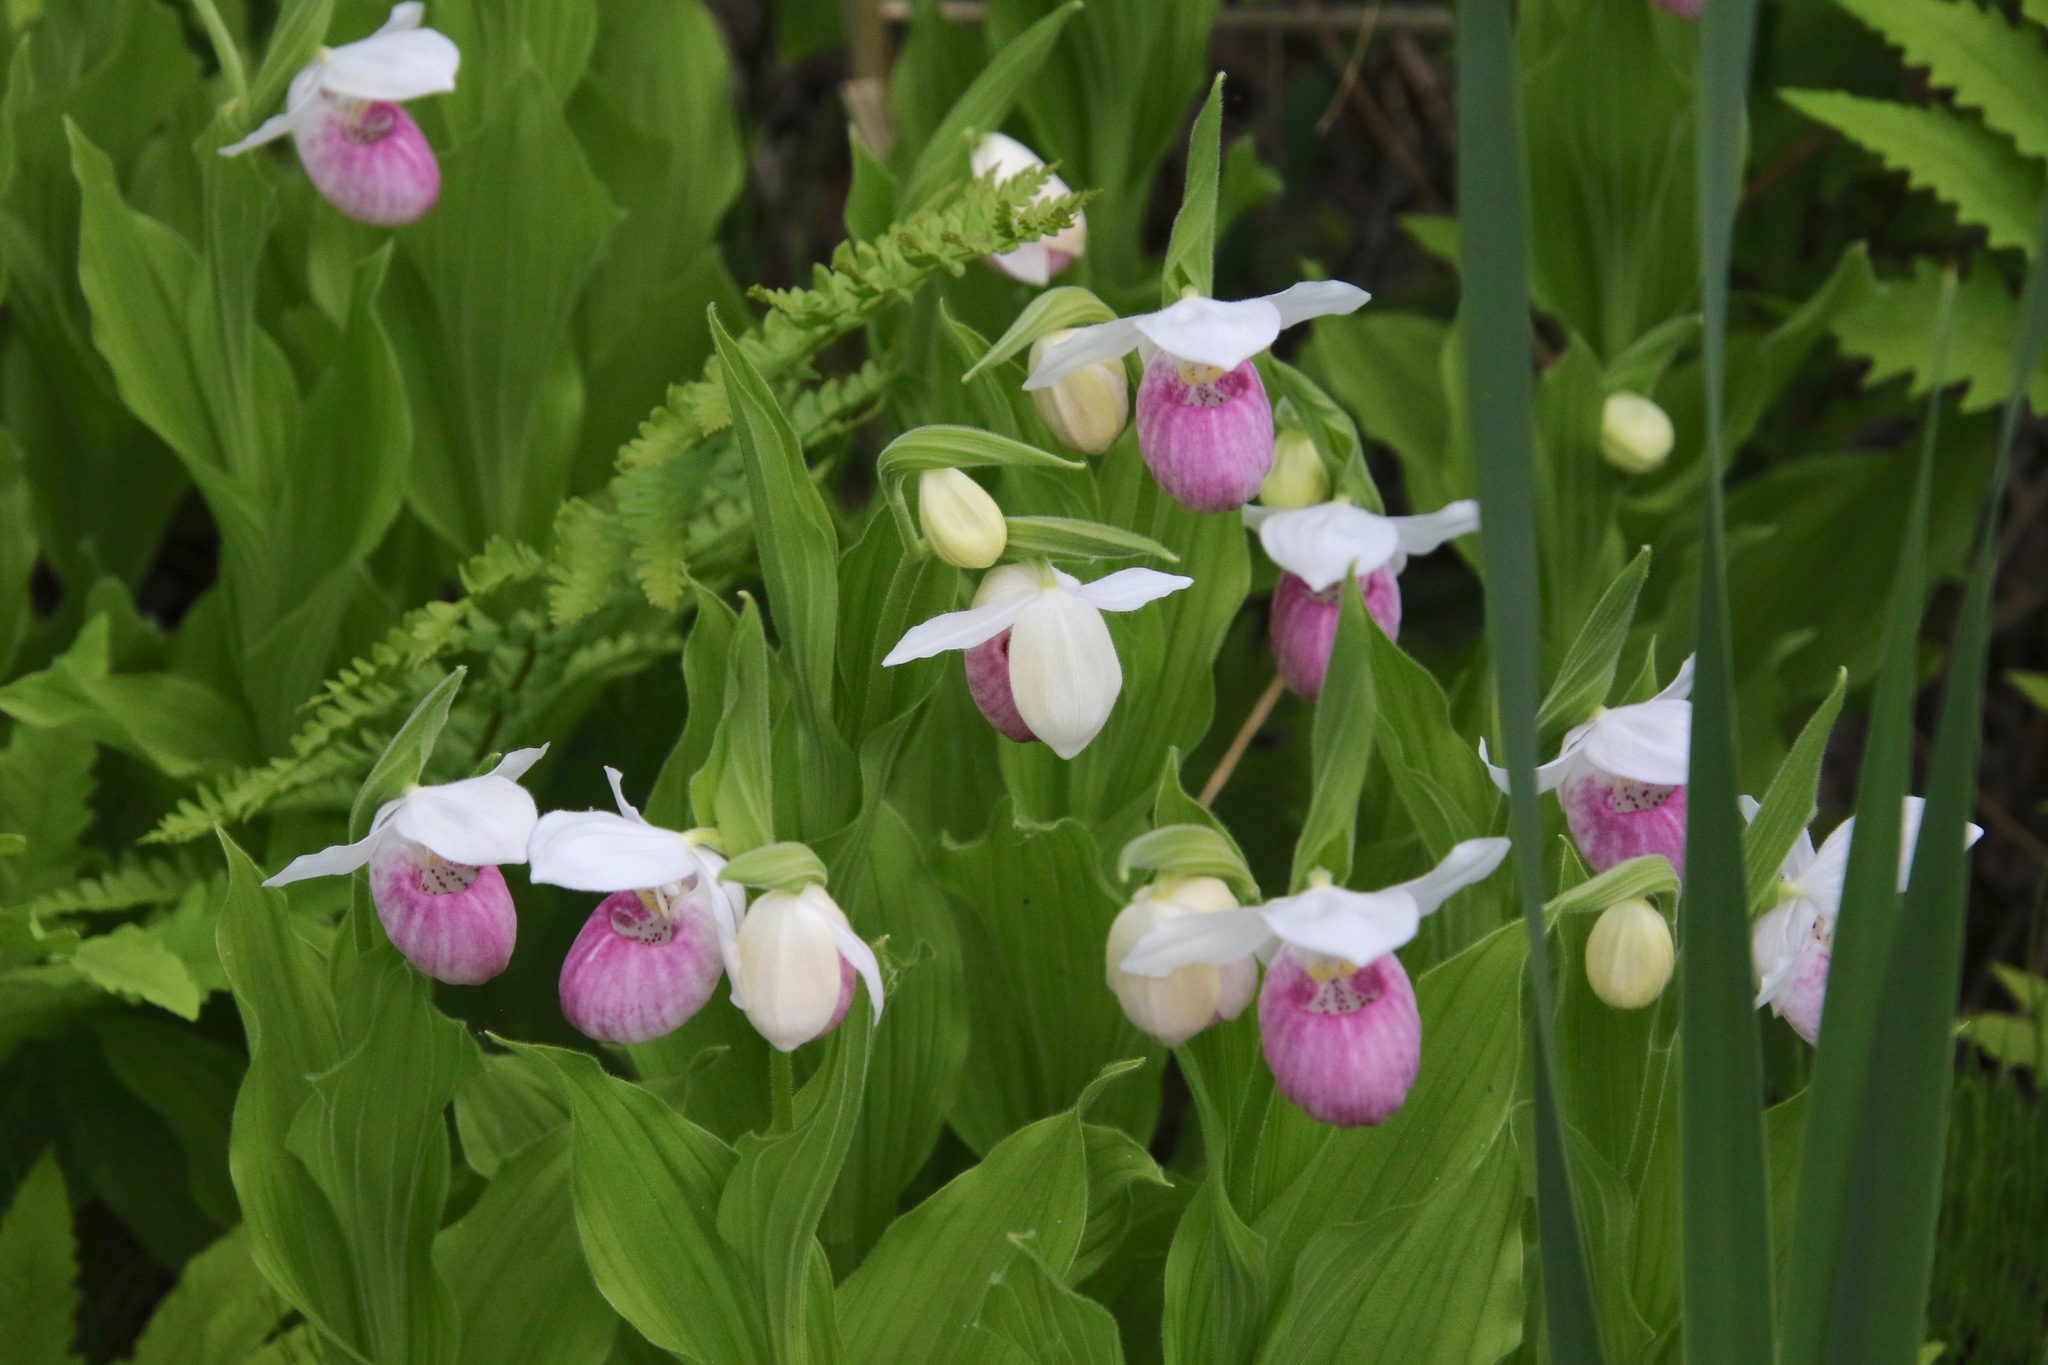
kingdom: Plantae
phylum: Tracheophyta
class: Liliopsida
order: Asparagales
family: Orchidaceae
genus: Cypripedium
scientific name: Cypripedium reginae
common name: Queen lady's-slipper
